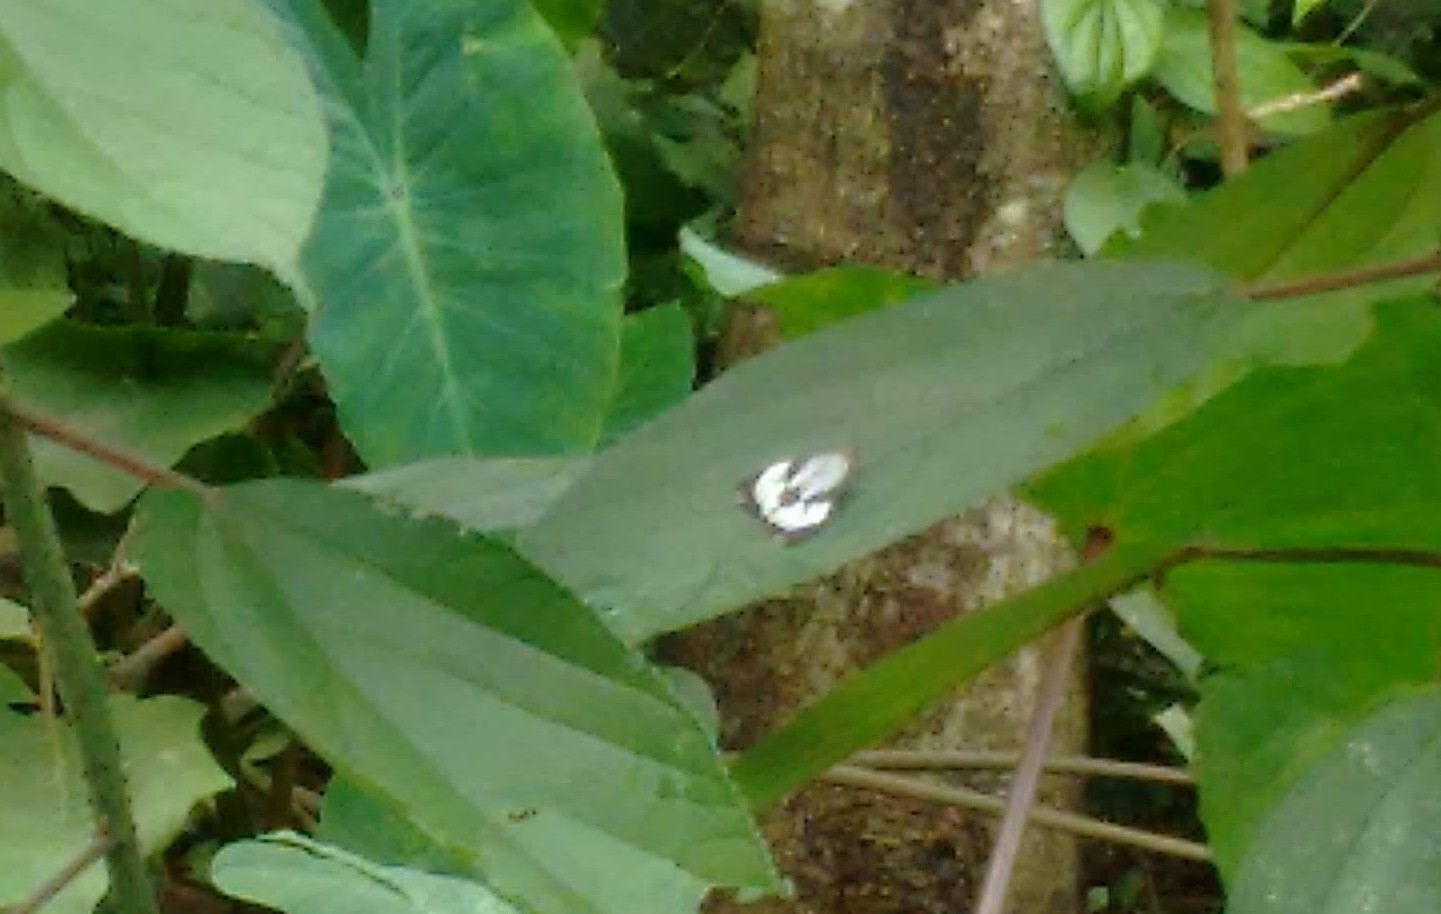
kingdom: Animalia
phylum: Arthropoda
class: Insecta
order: Lepidoptera
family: Erebidae
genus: Nyctemera
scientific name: Nyctemera coleta
